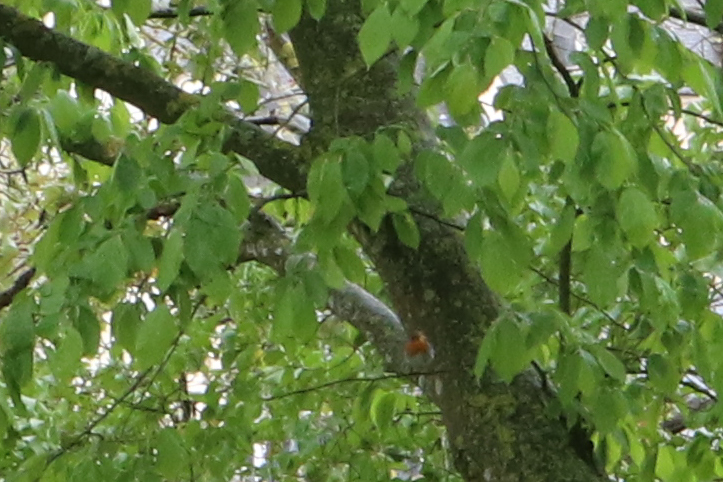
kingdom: Animalia
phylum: Chordata
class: Aves
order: Passeriformes
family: Muscicapidae
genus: Erithacus
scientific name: Erithacus rubecula
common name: European robin
